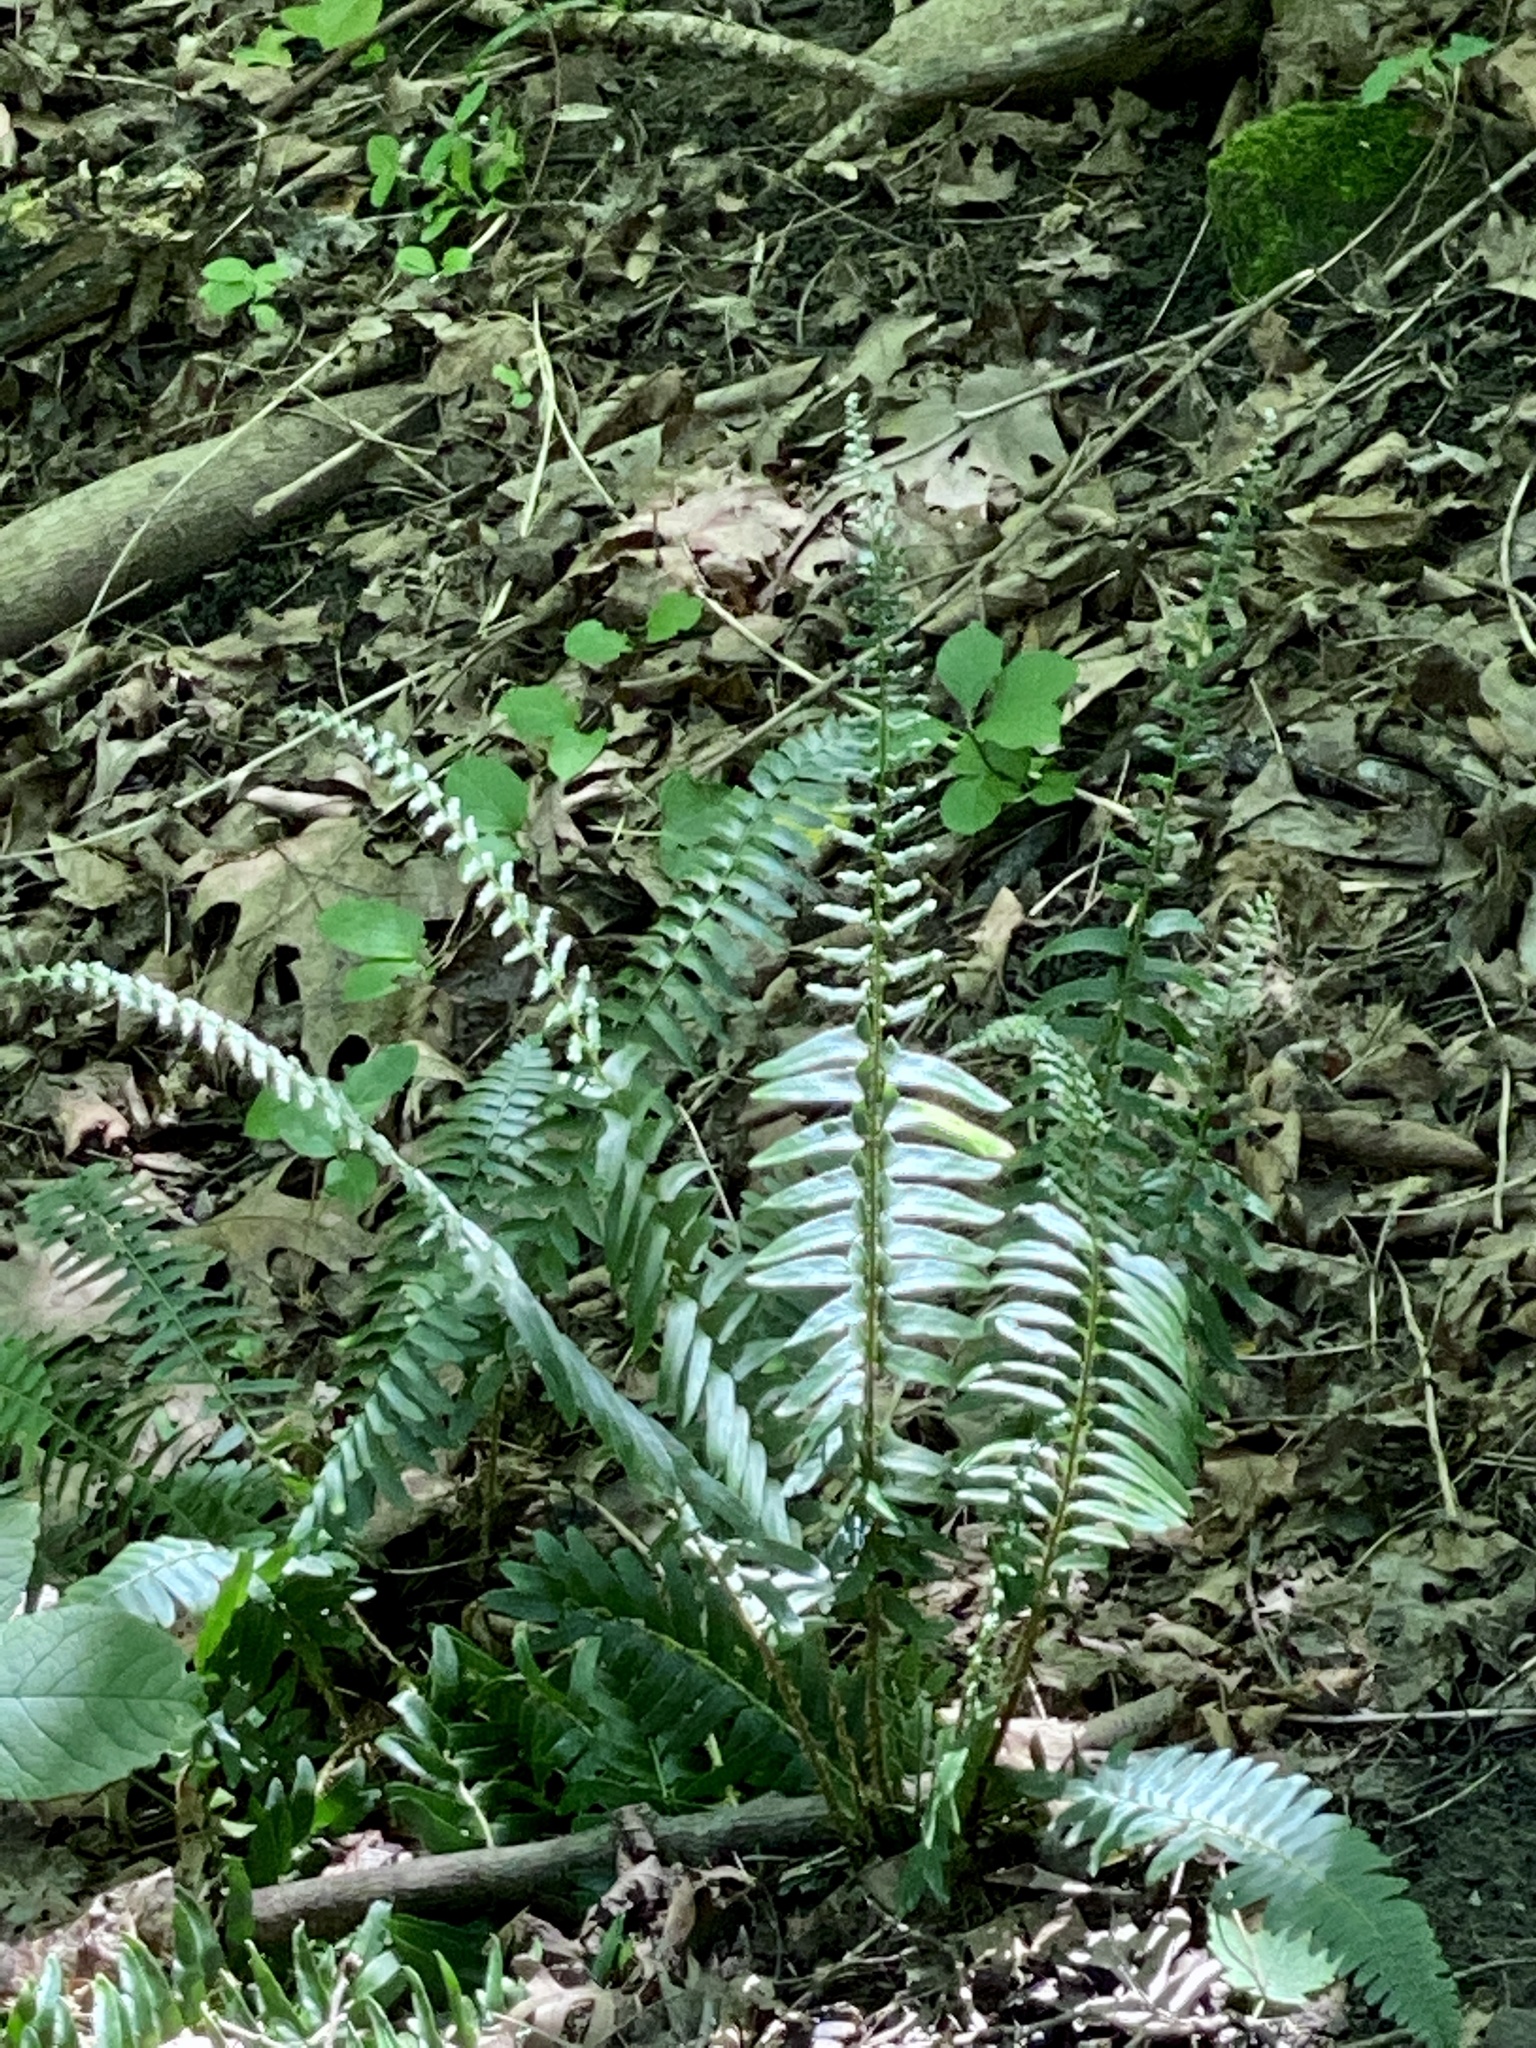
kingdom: Plantae
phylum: Tracheophyta
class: Polypodiopsida
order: Polypodiales
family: Dryopteridaceae
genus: Polystichum
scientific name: Polystichum acrostichoides
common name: Christmas fern
